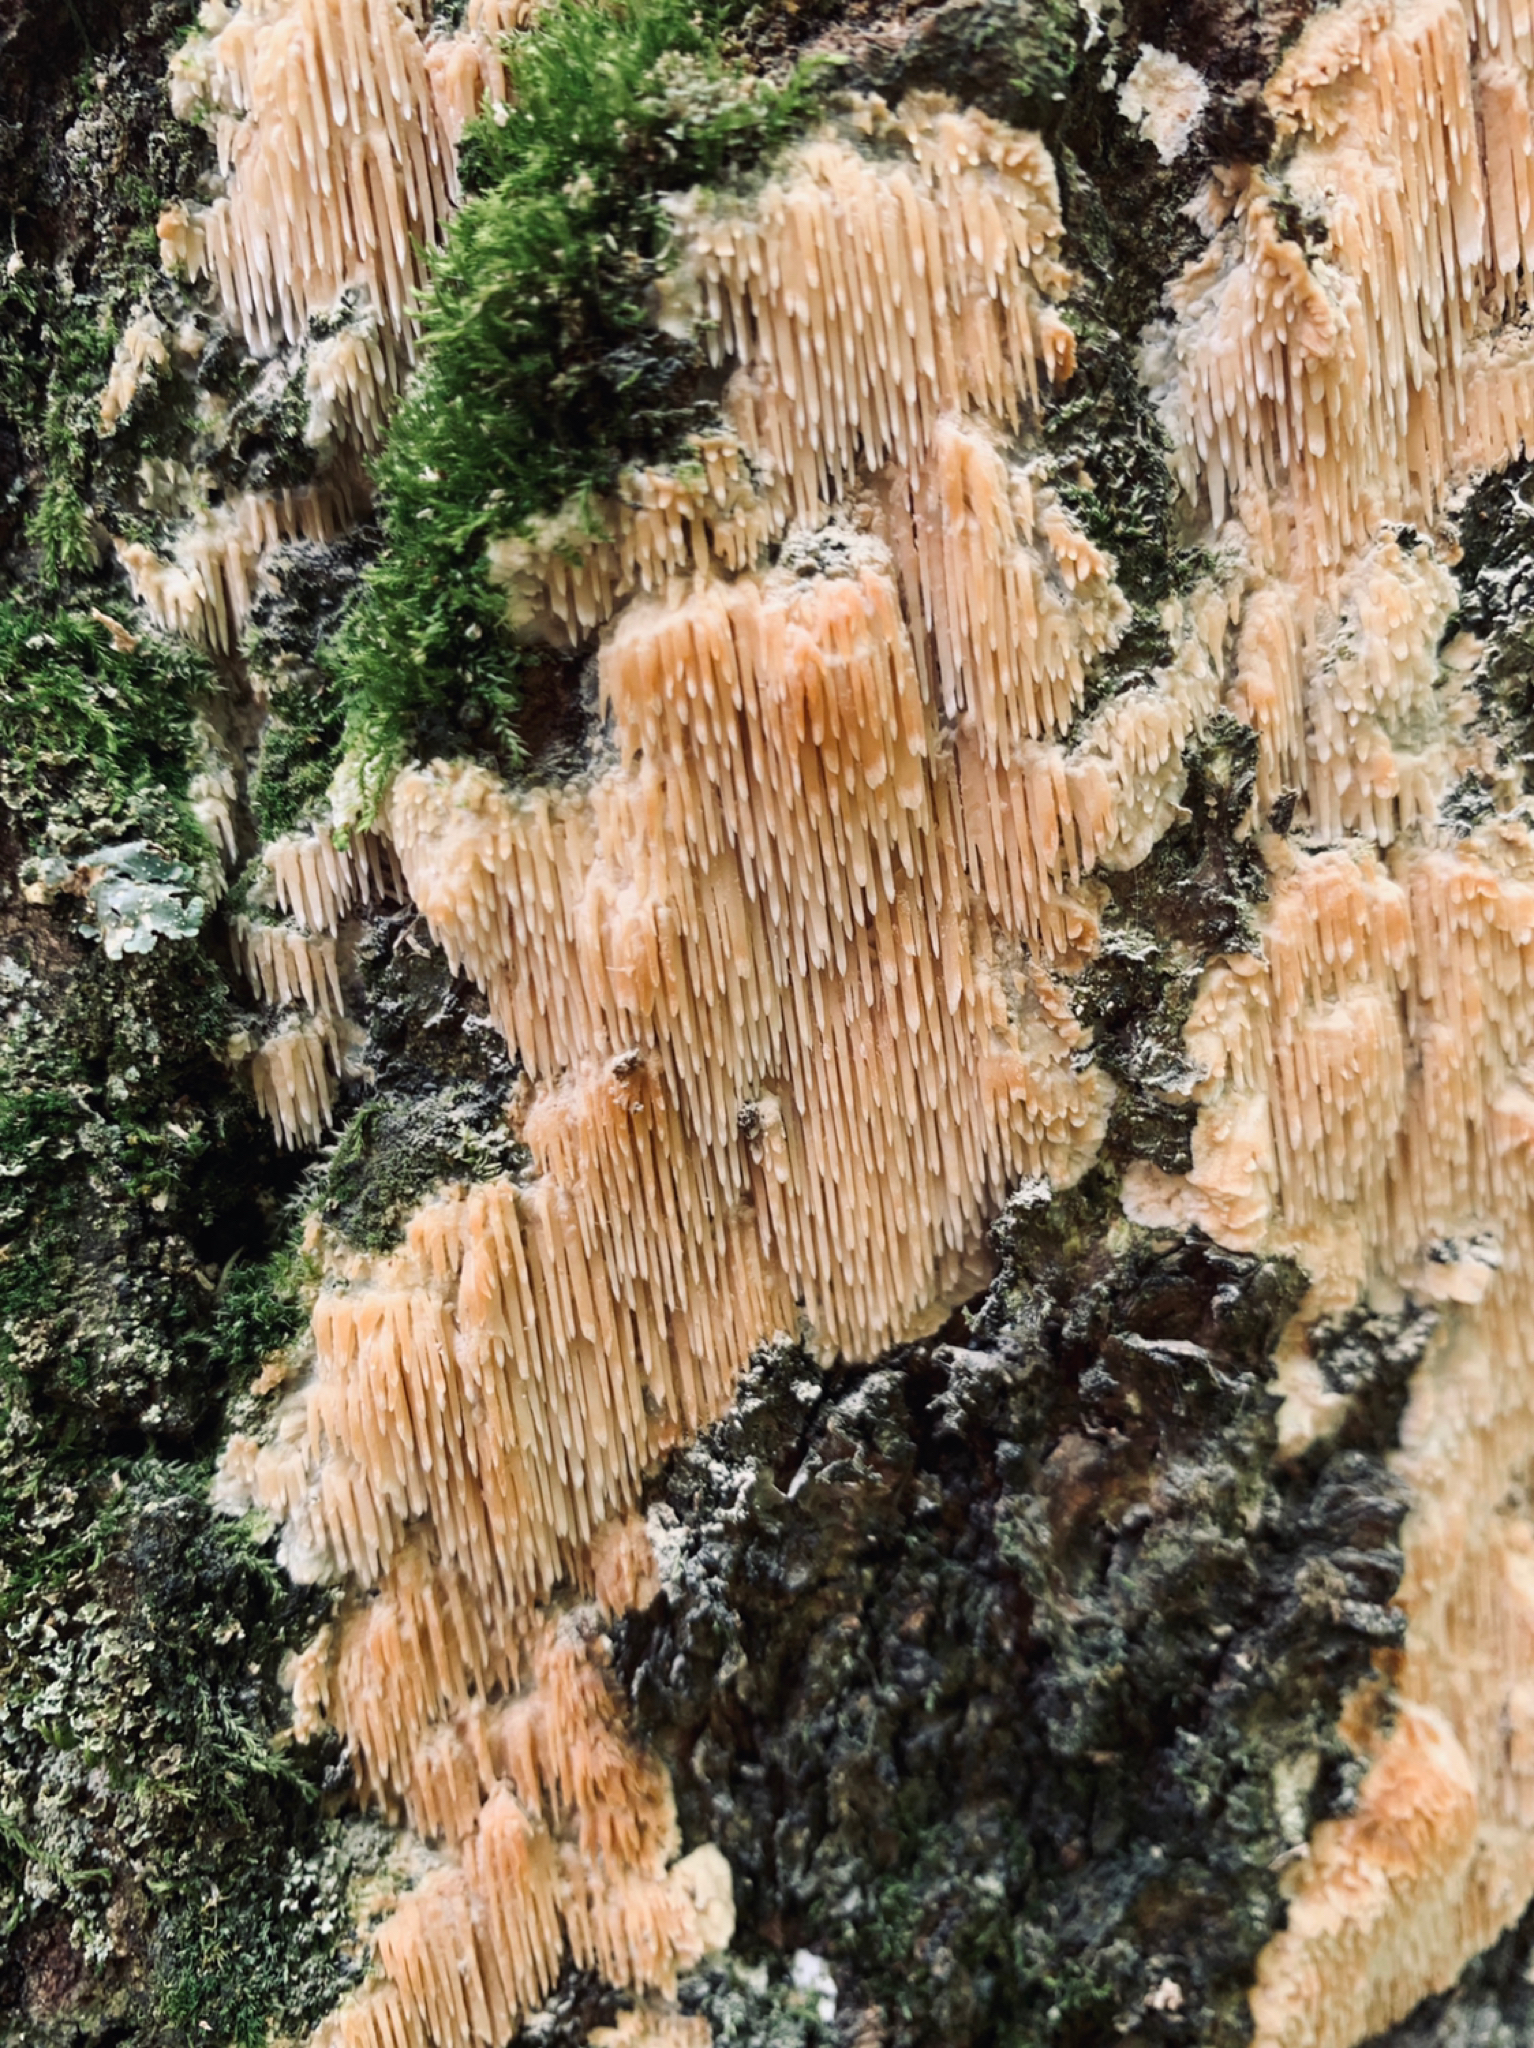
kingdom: Fungi
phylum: Basidiomycota
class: Agaricomycetes
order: Agaricales
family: Radulomycetaceae
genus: Radulomyces
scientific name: Radulomyces copelandii
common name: Asian beauty
